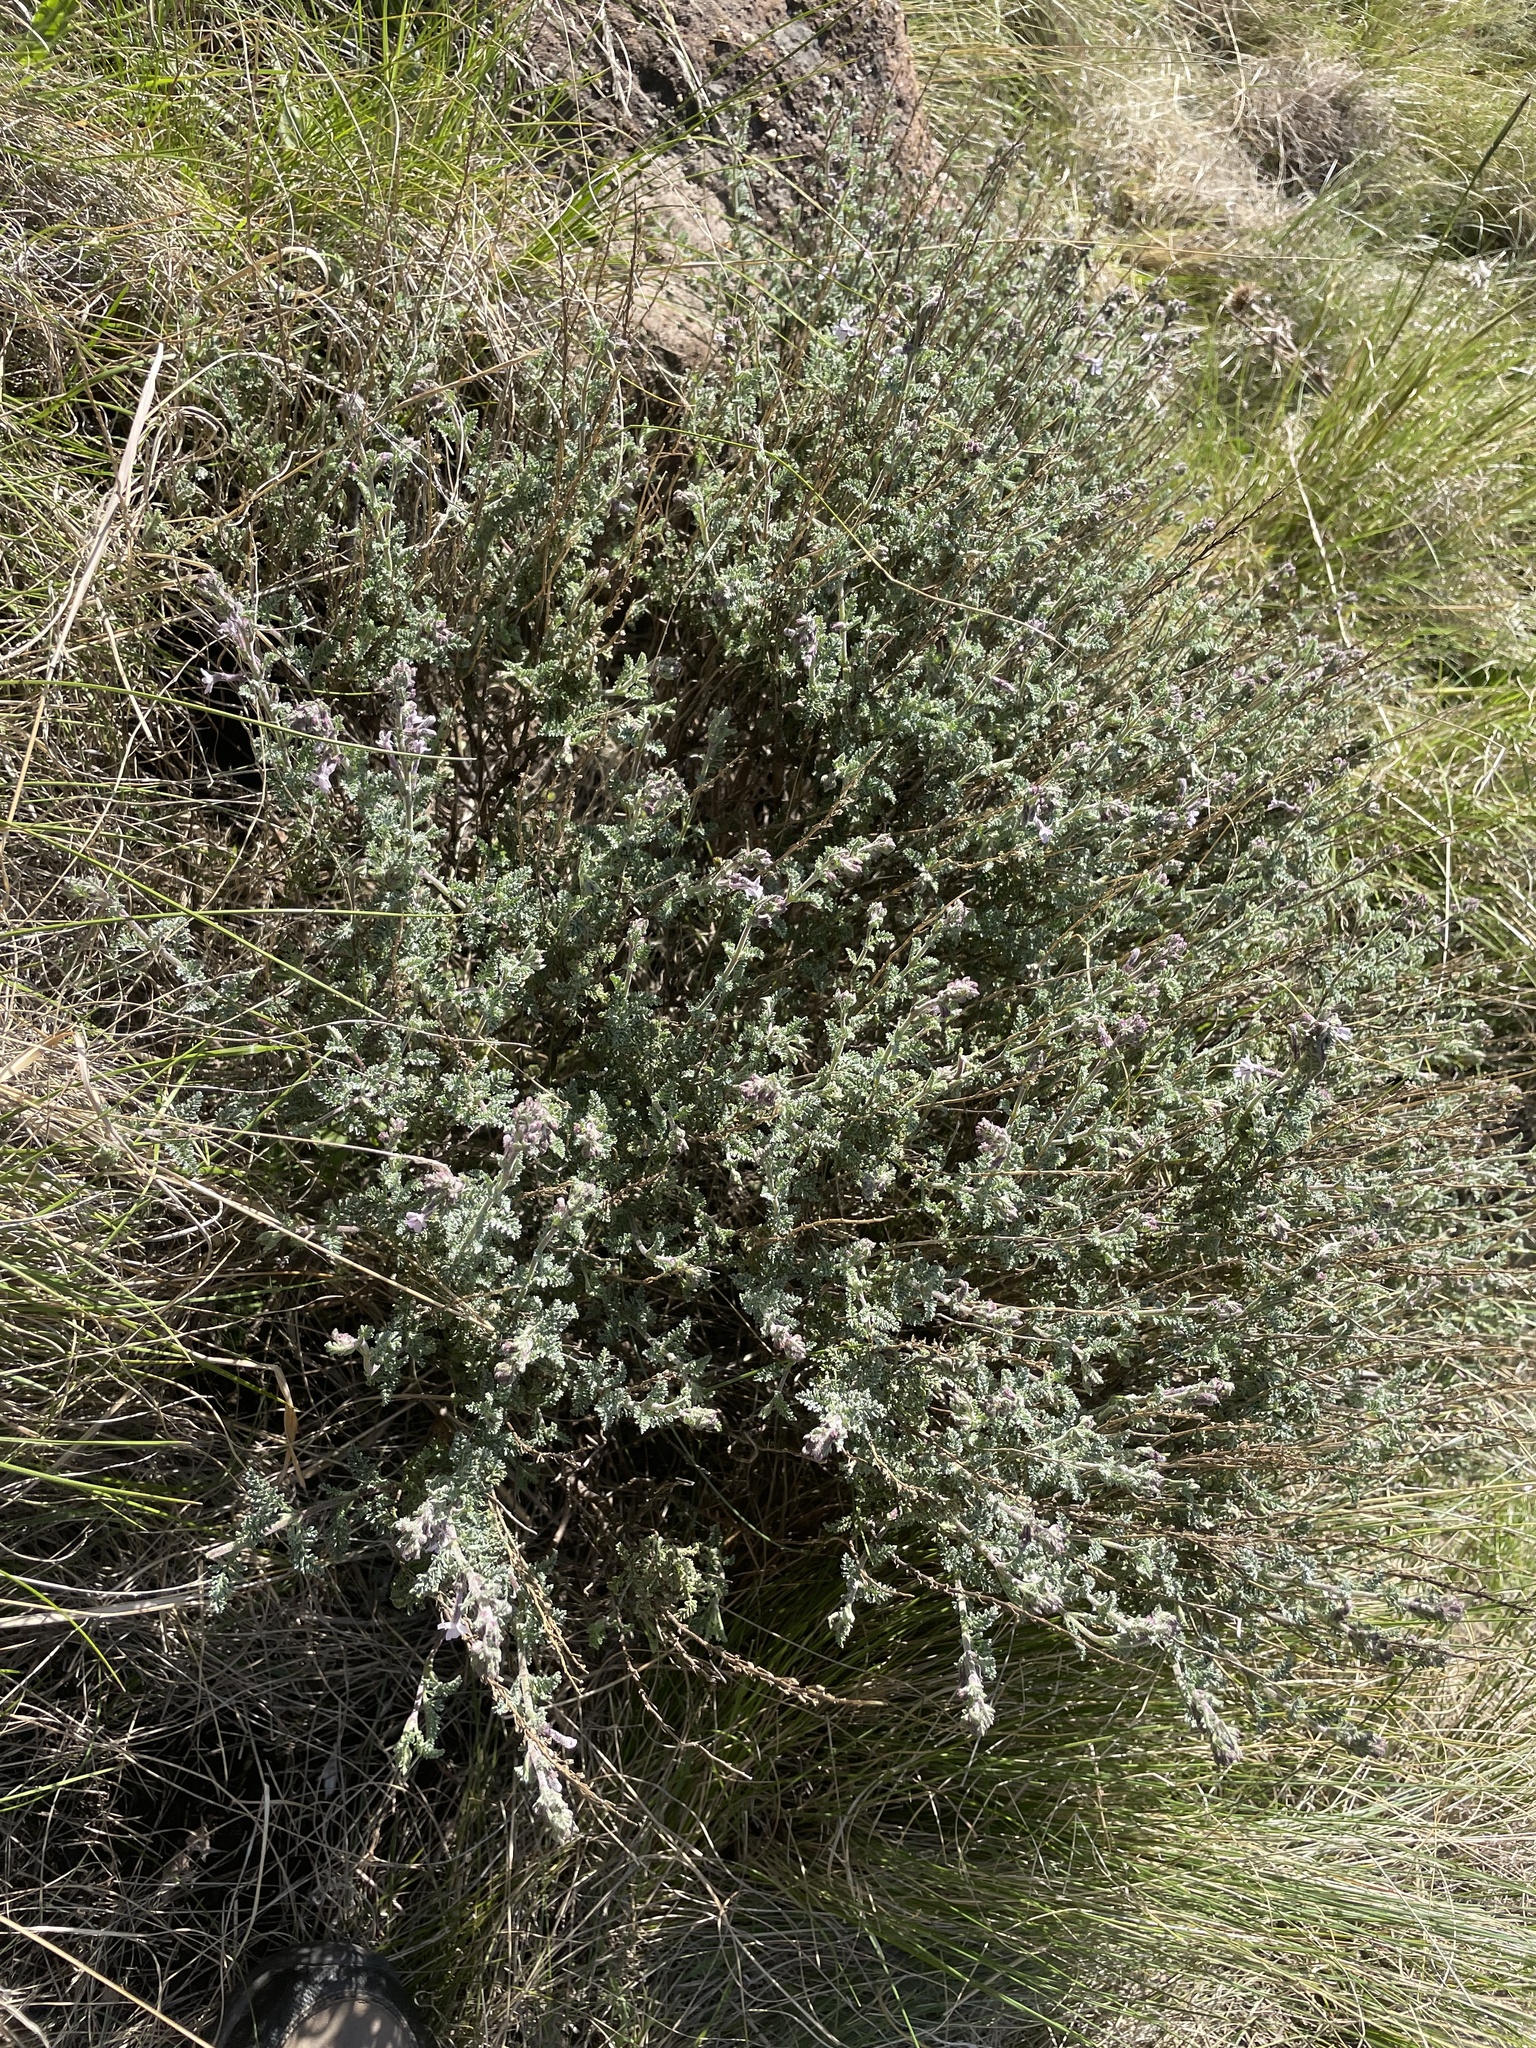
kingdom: Plantae
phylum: Tracheophyta
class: Magnoliopsida
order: Lamiales
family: Scrophulariaceae
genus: Jamesbrittenia
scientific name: Jamesbrittenia pristisepala
